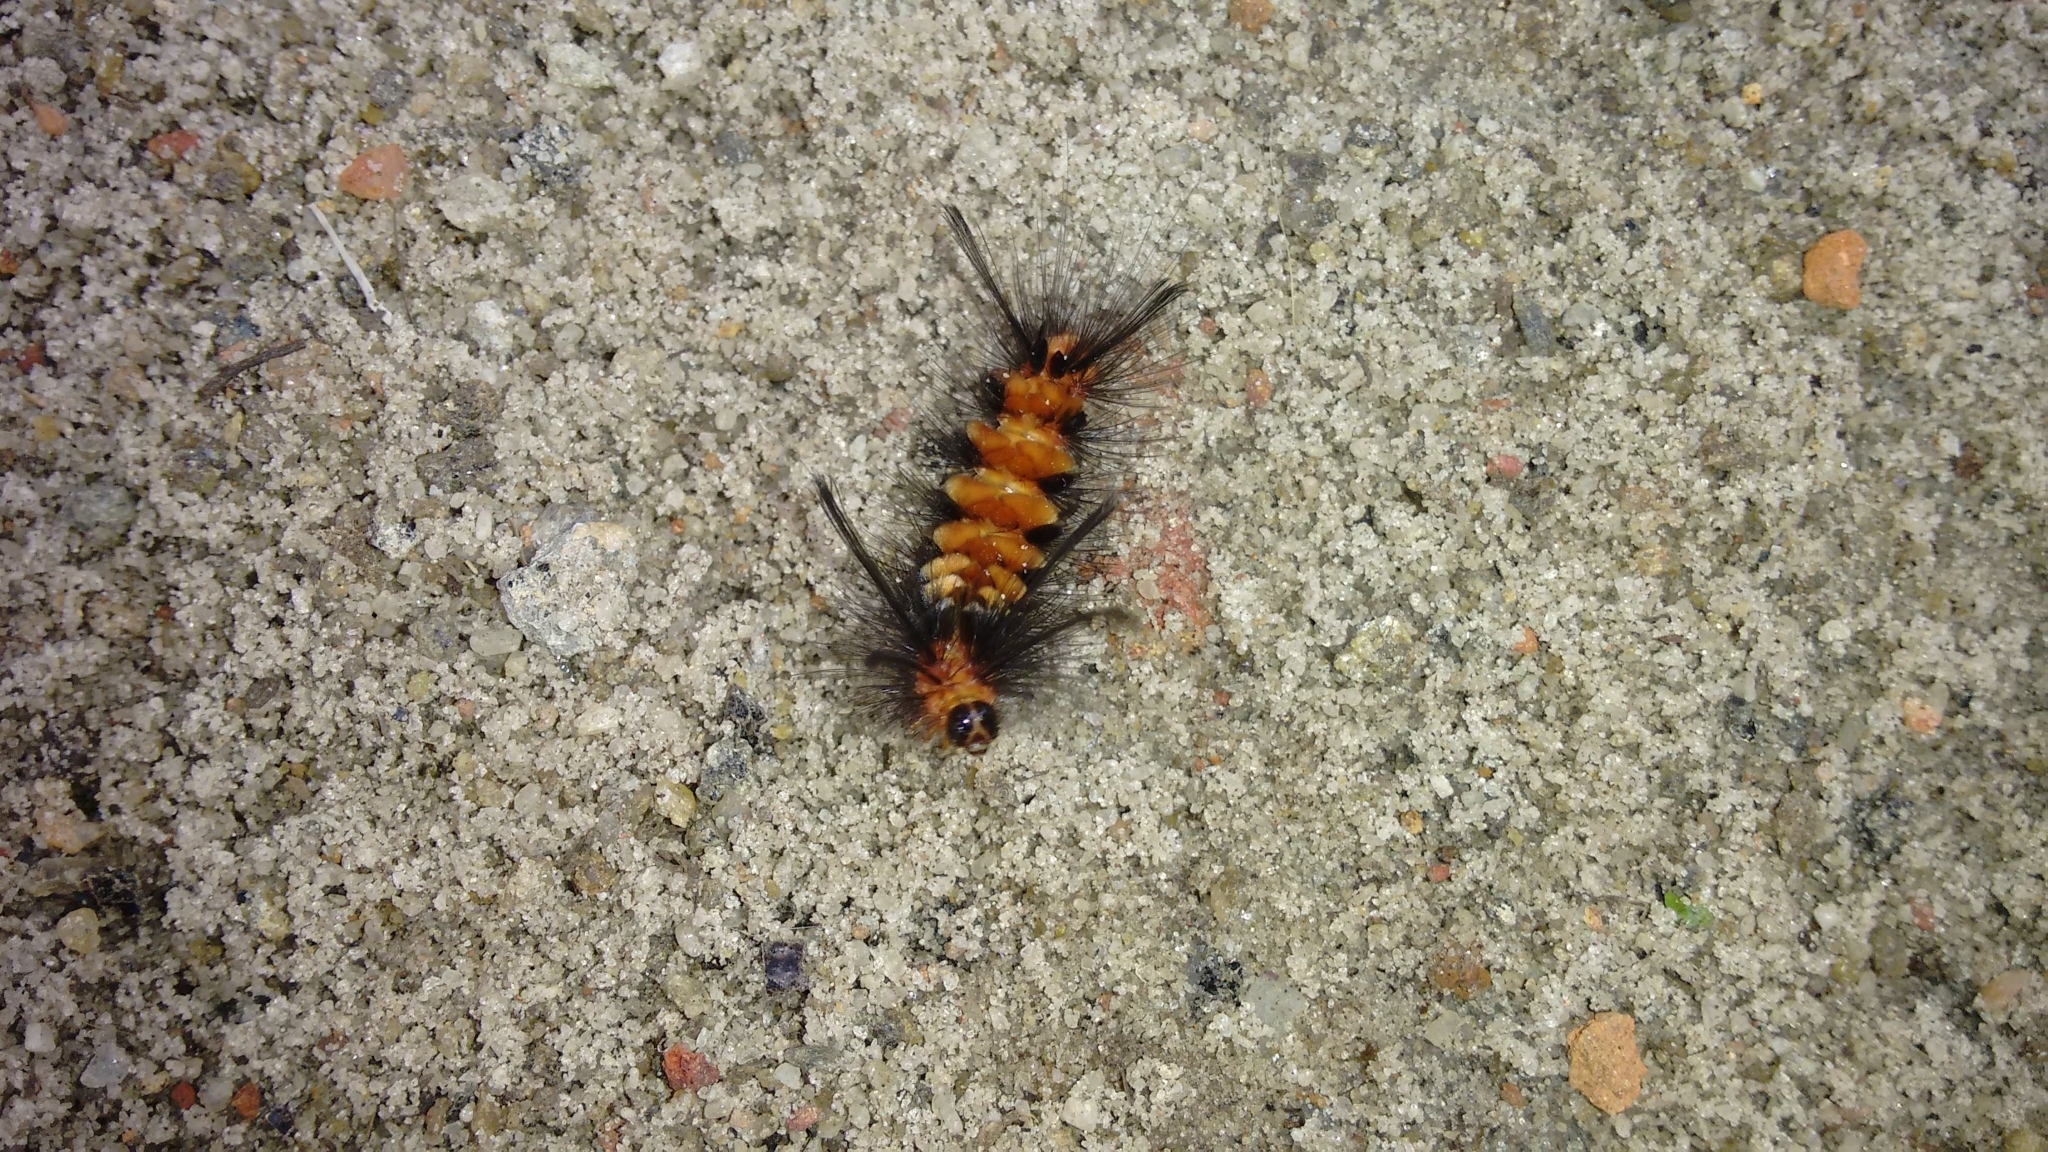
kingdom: Animalia
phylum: Arthropoda
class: Insecta
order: Lepidoptera
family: Erebidae
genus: Euchromia
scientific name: Euchromia polymena
